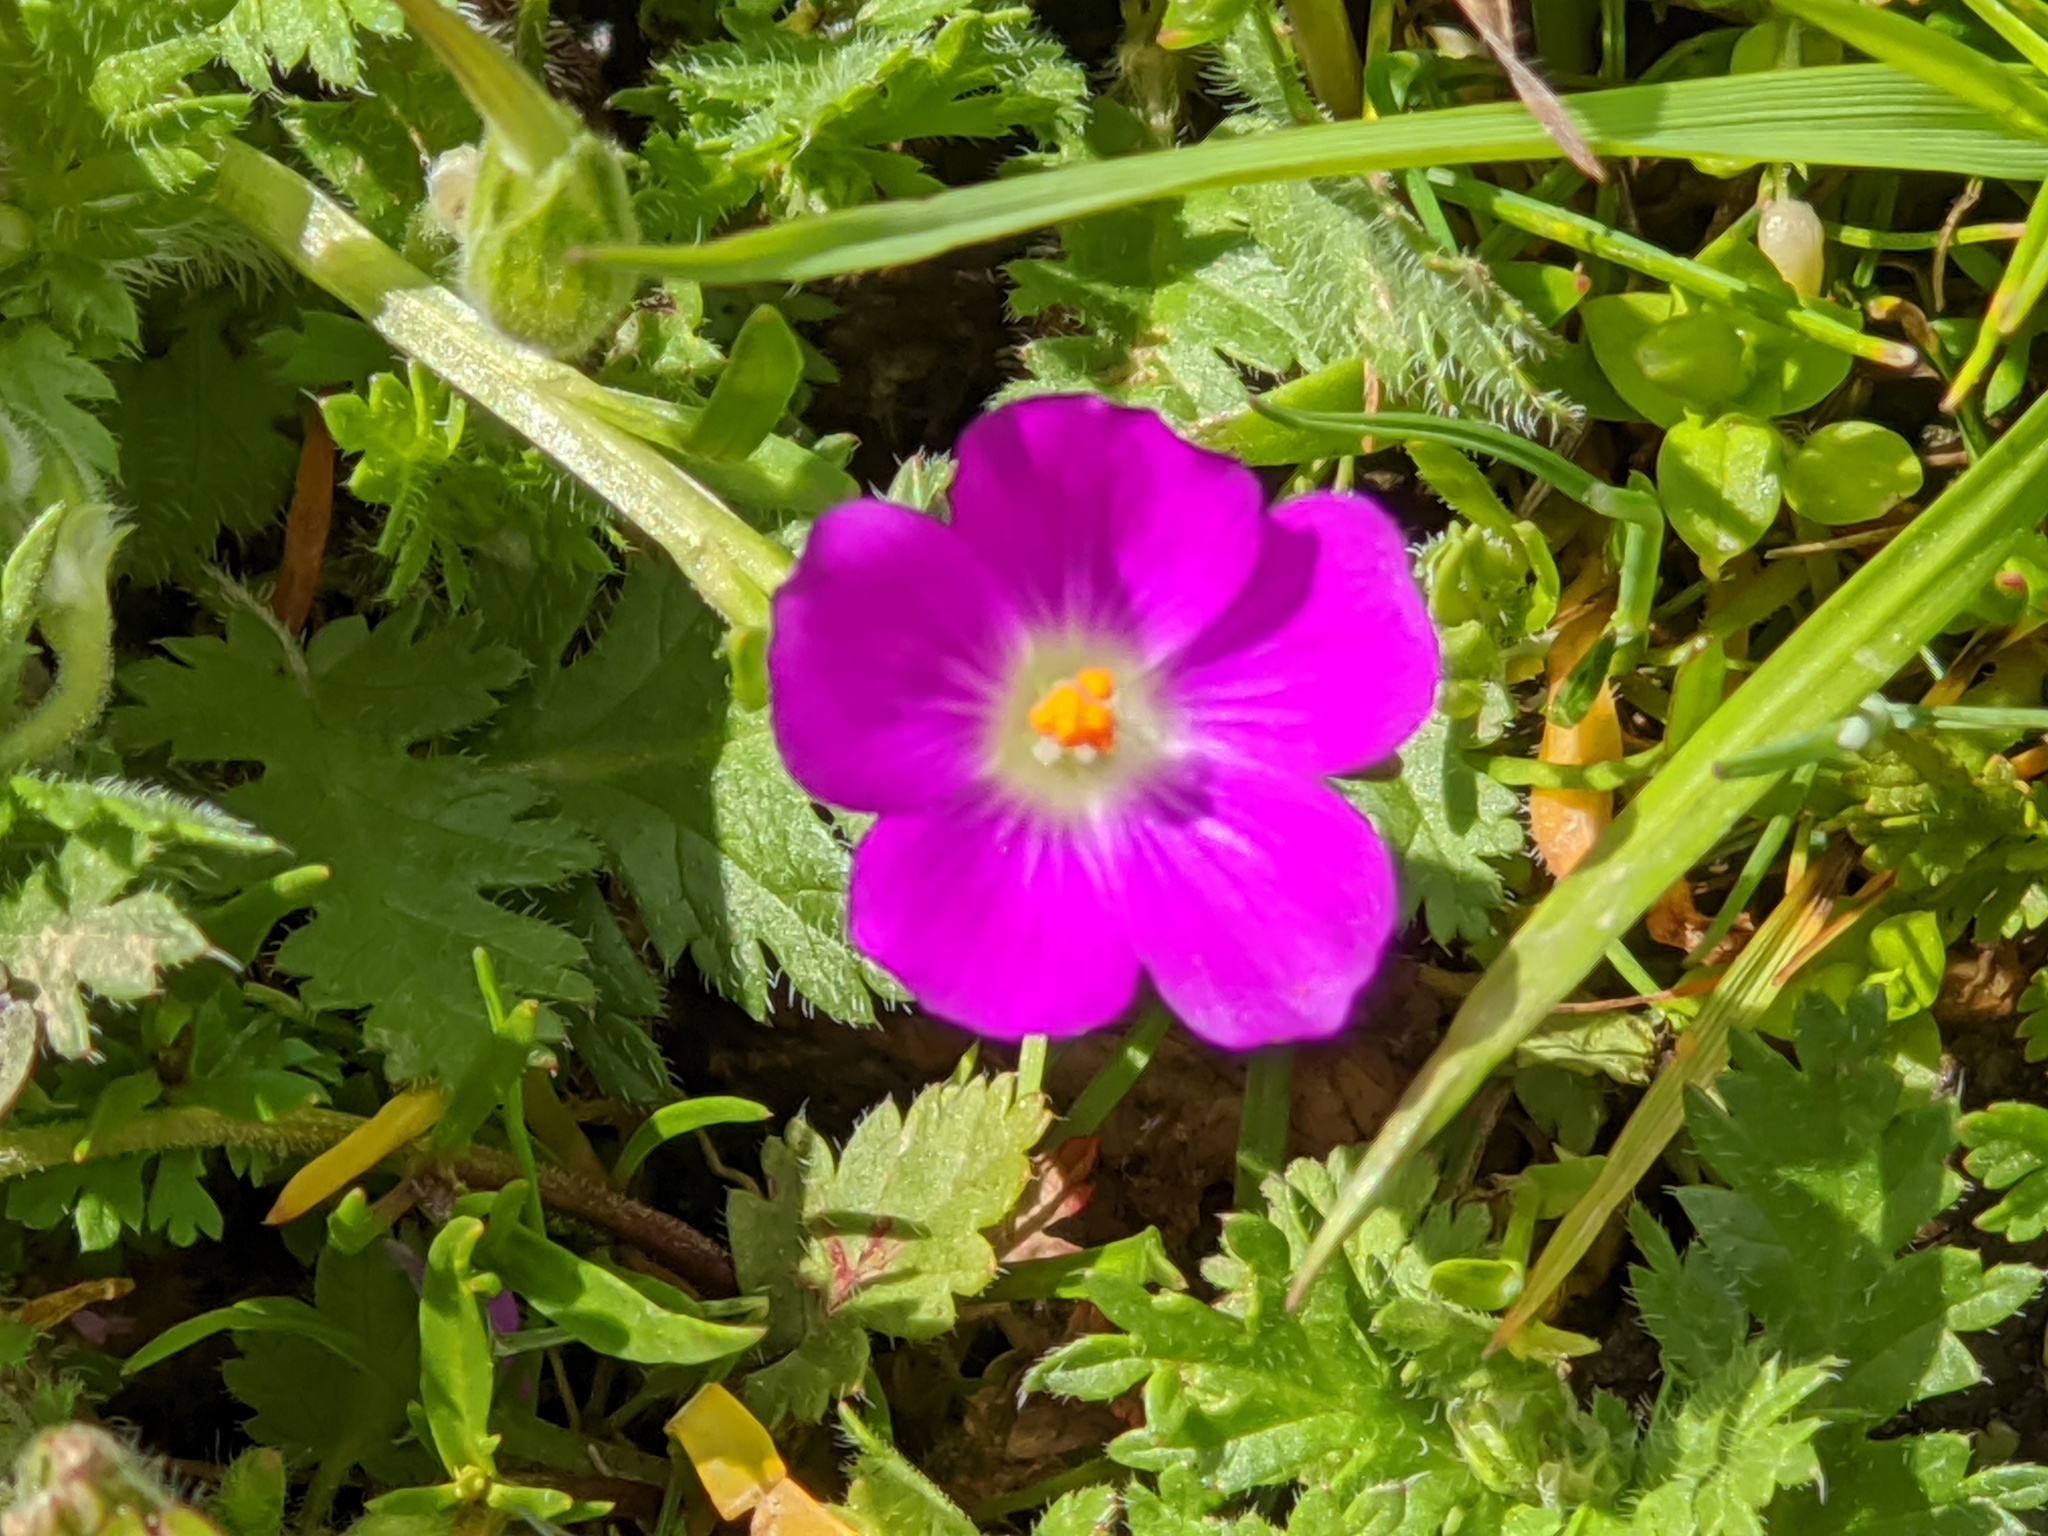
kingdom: Plantae
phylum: Tracheophyta
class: Magnoliopsida
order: Caryophyllales
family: Montiaceae
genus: Calandrinia
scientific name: Calandrinia menziesii
